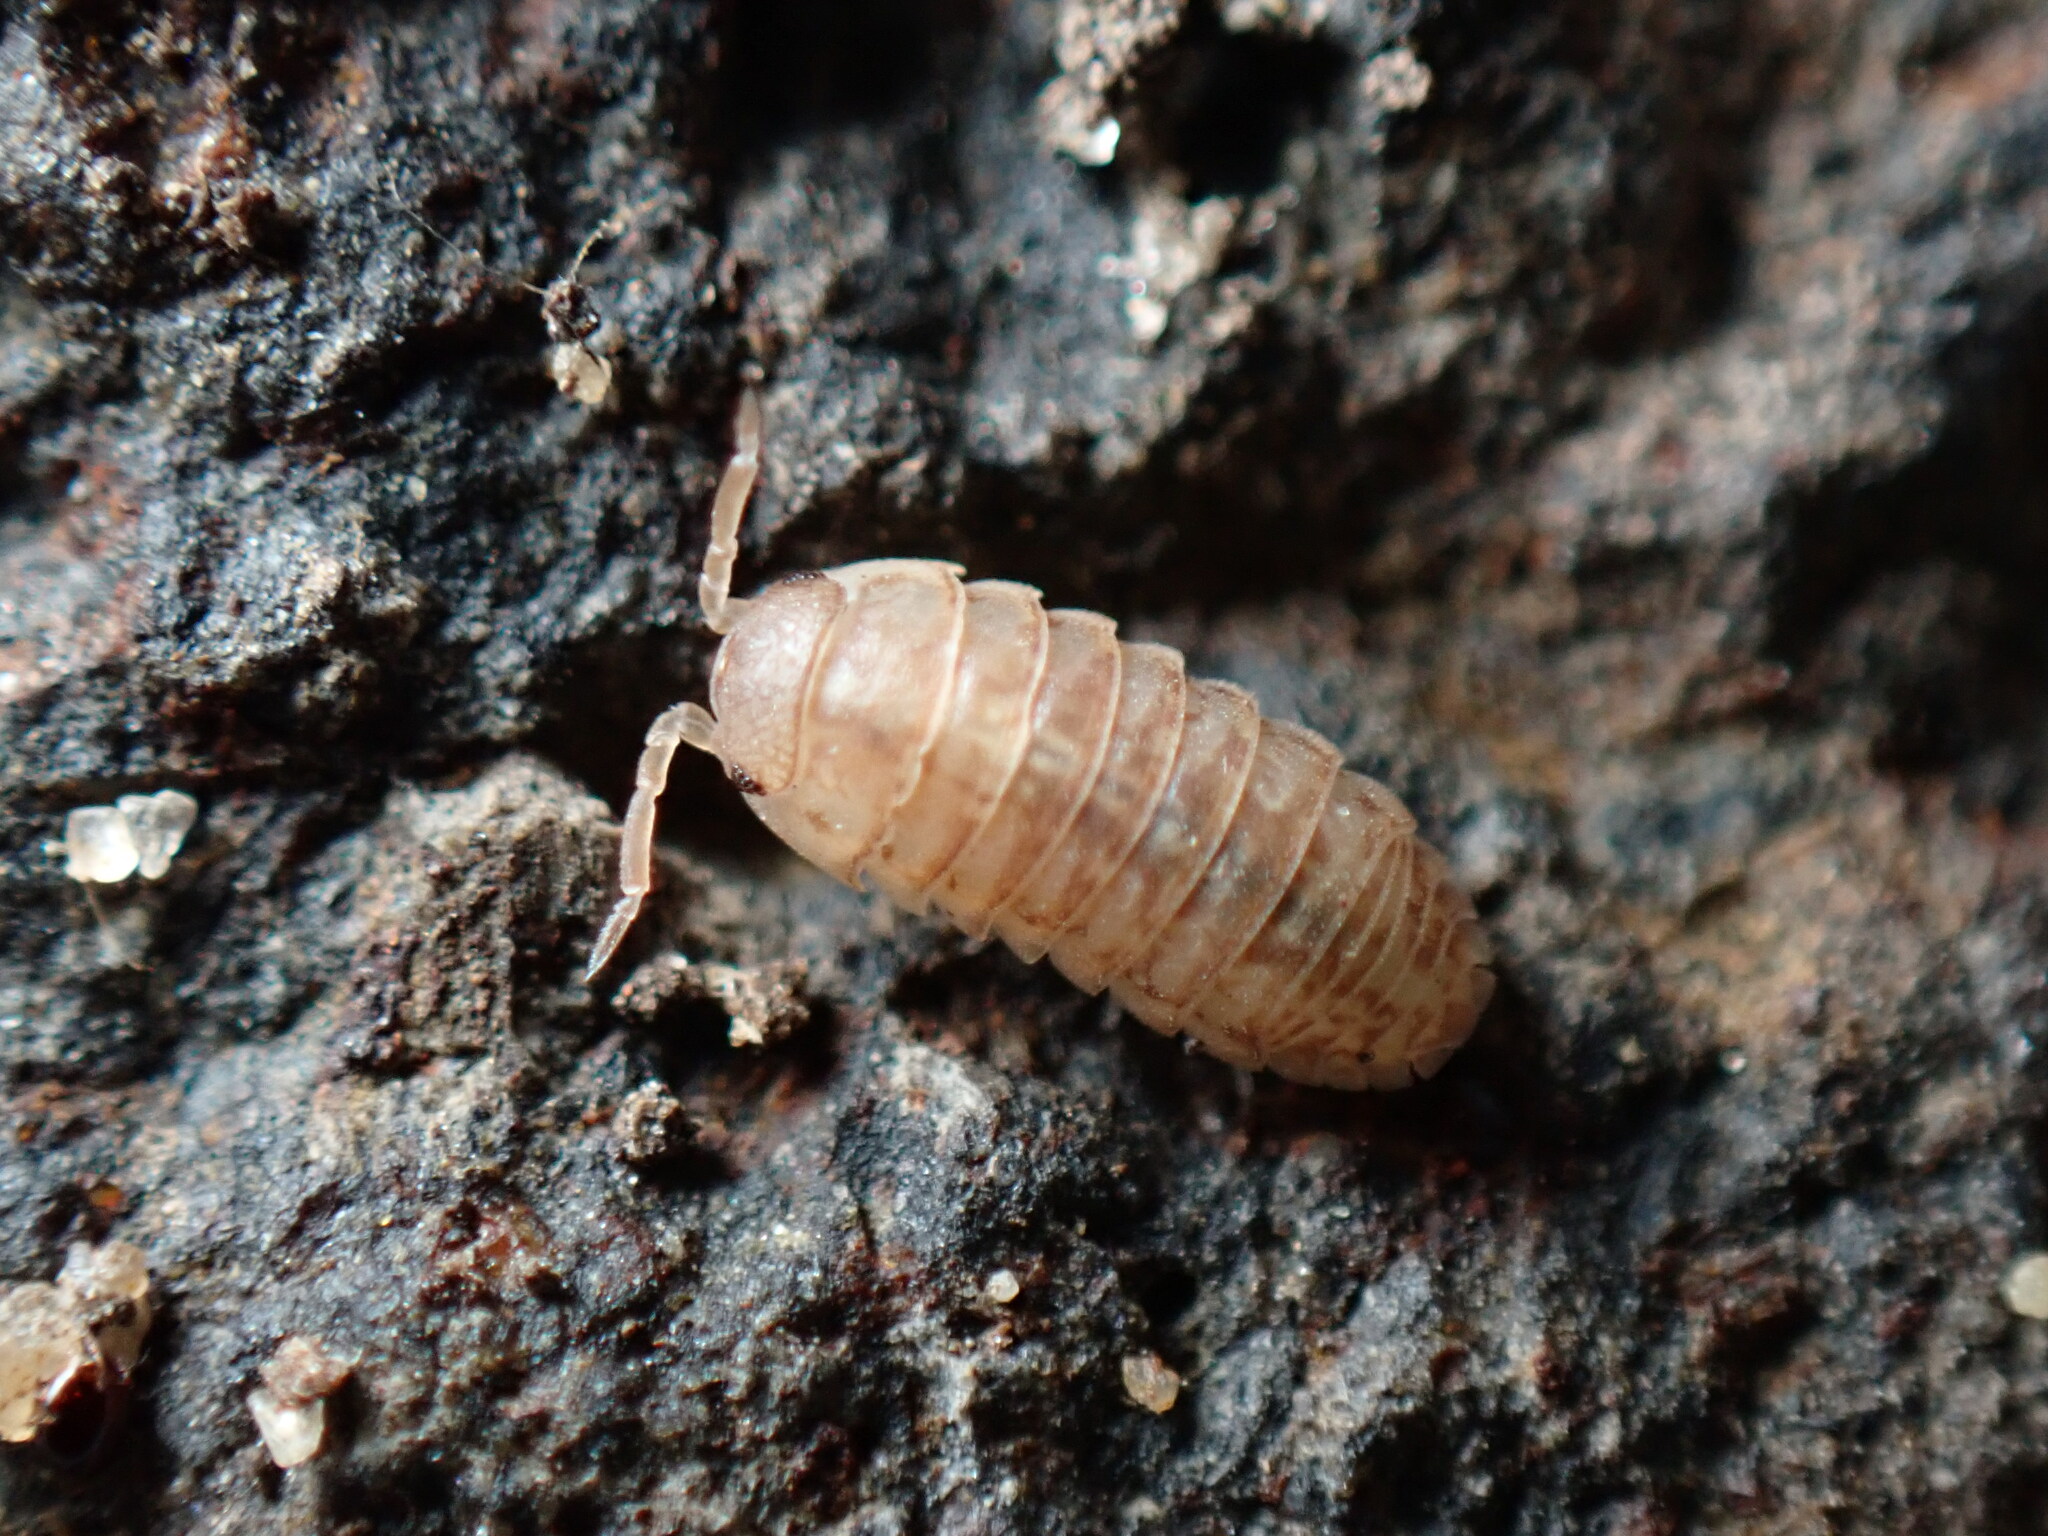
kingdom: Animalia
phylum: Arthropoda
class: Malacostraca
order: Isopoda
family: Armadillidiidae
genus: Armadillidium
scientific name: Armadillidium arcangelii
